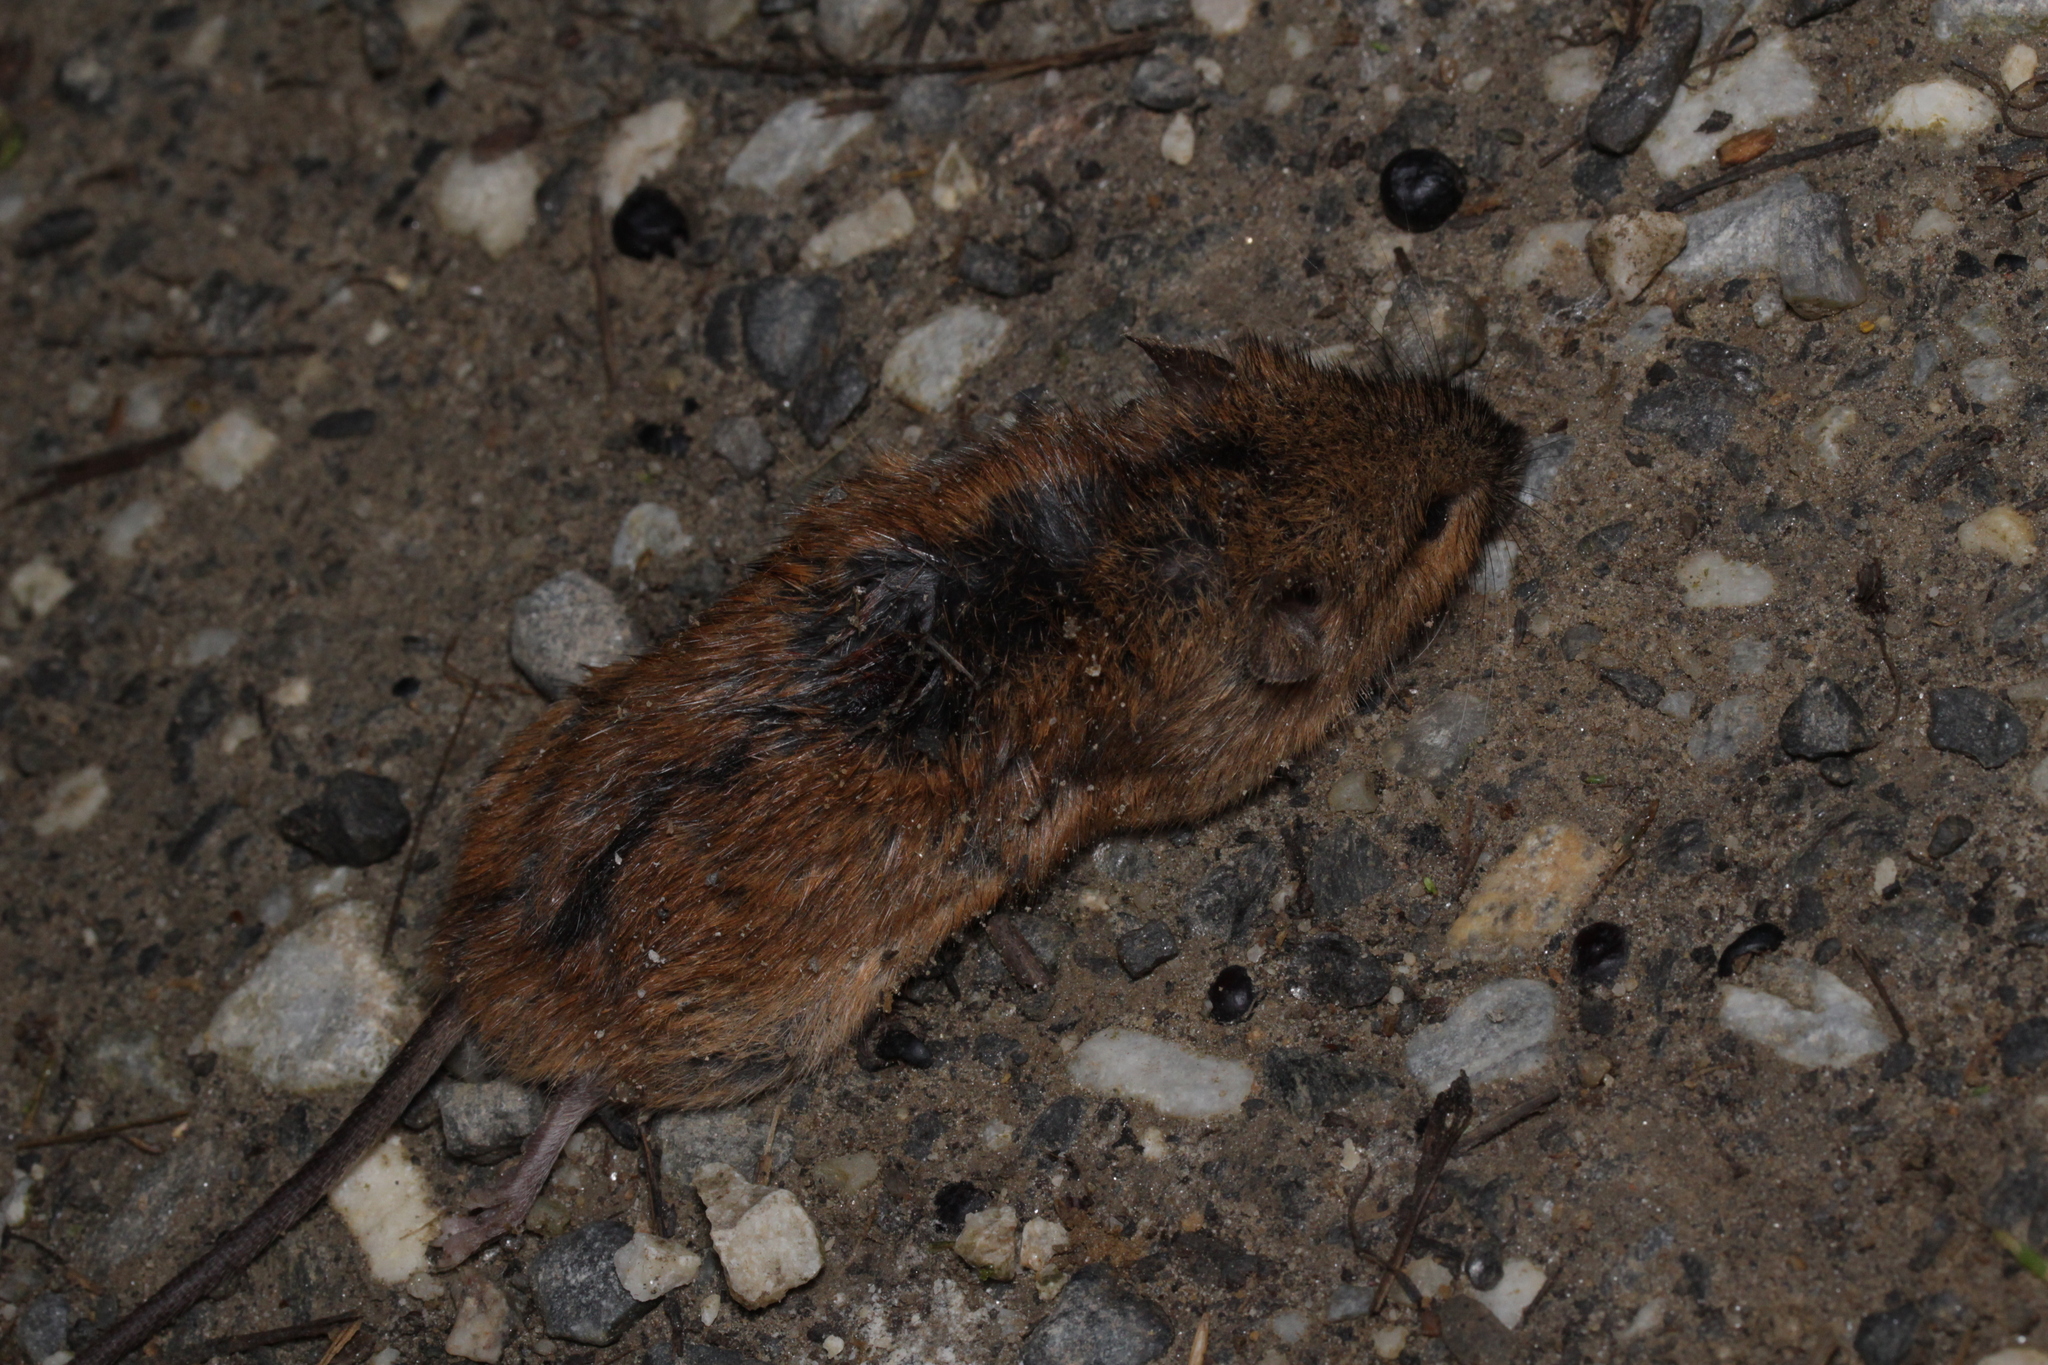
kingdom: Animalia
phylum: Chordata
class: Mammalia
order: Rodentia
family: Muridae
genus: Apodemus
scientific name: Apodemus agrarius
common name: Striped field mouse
